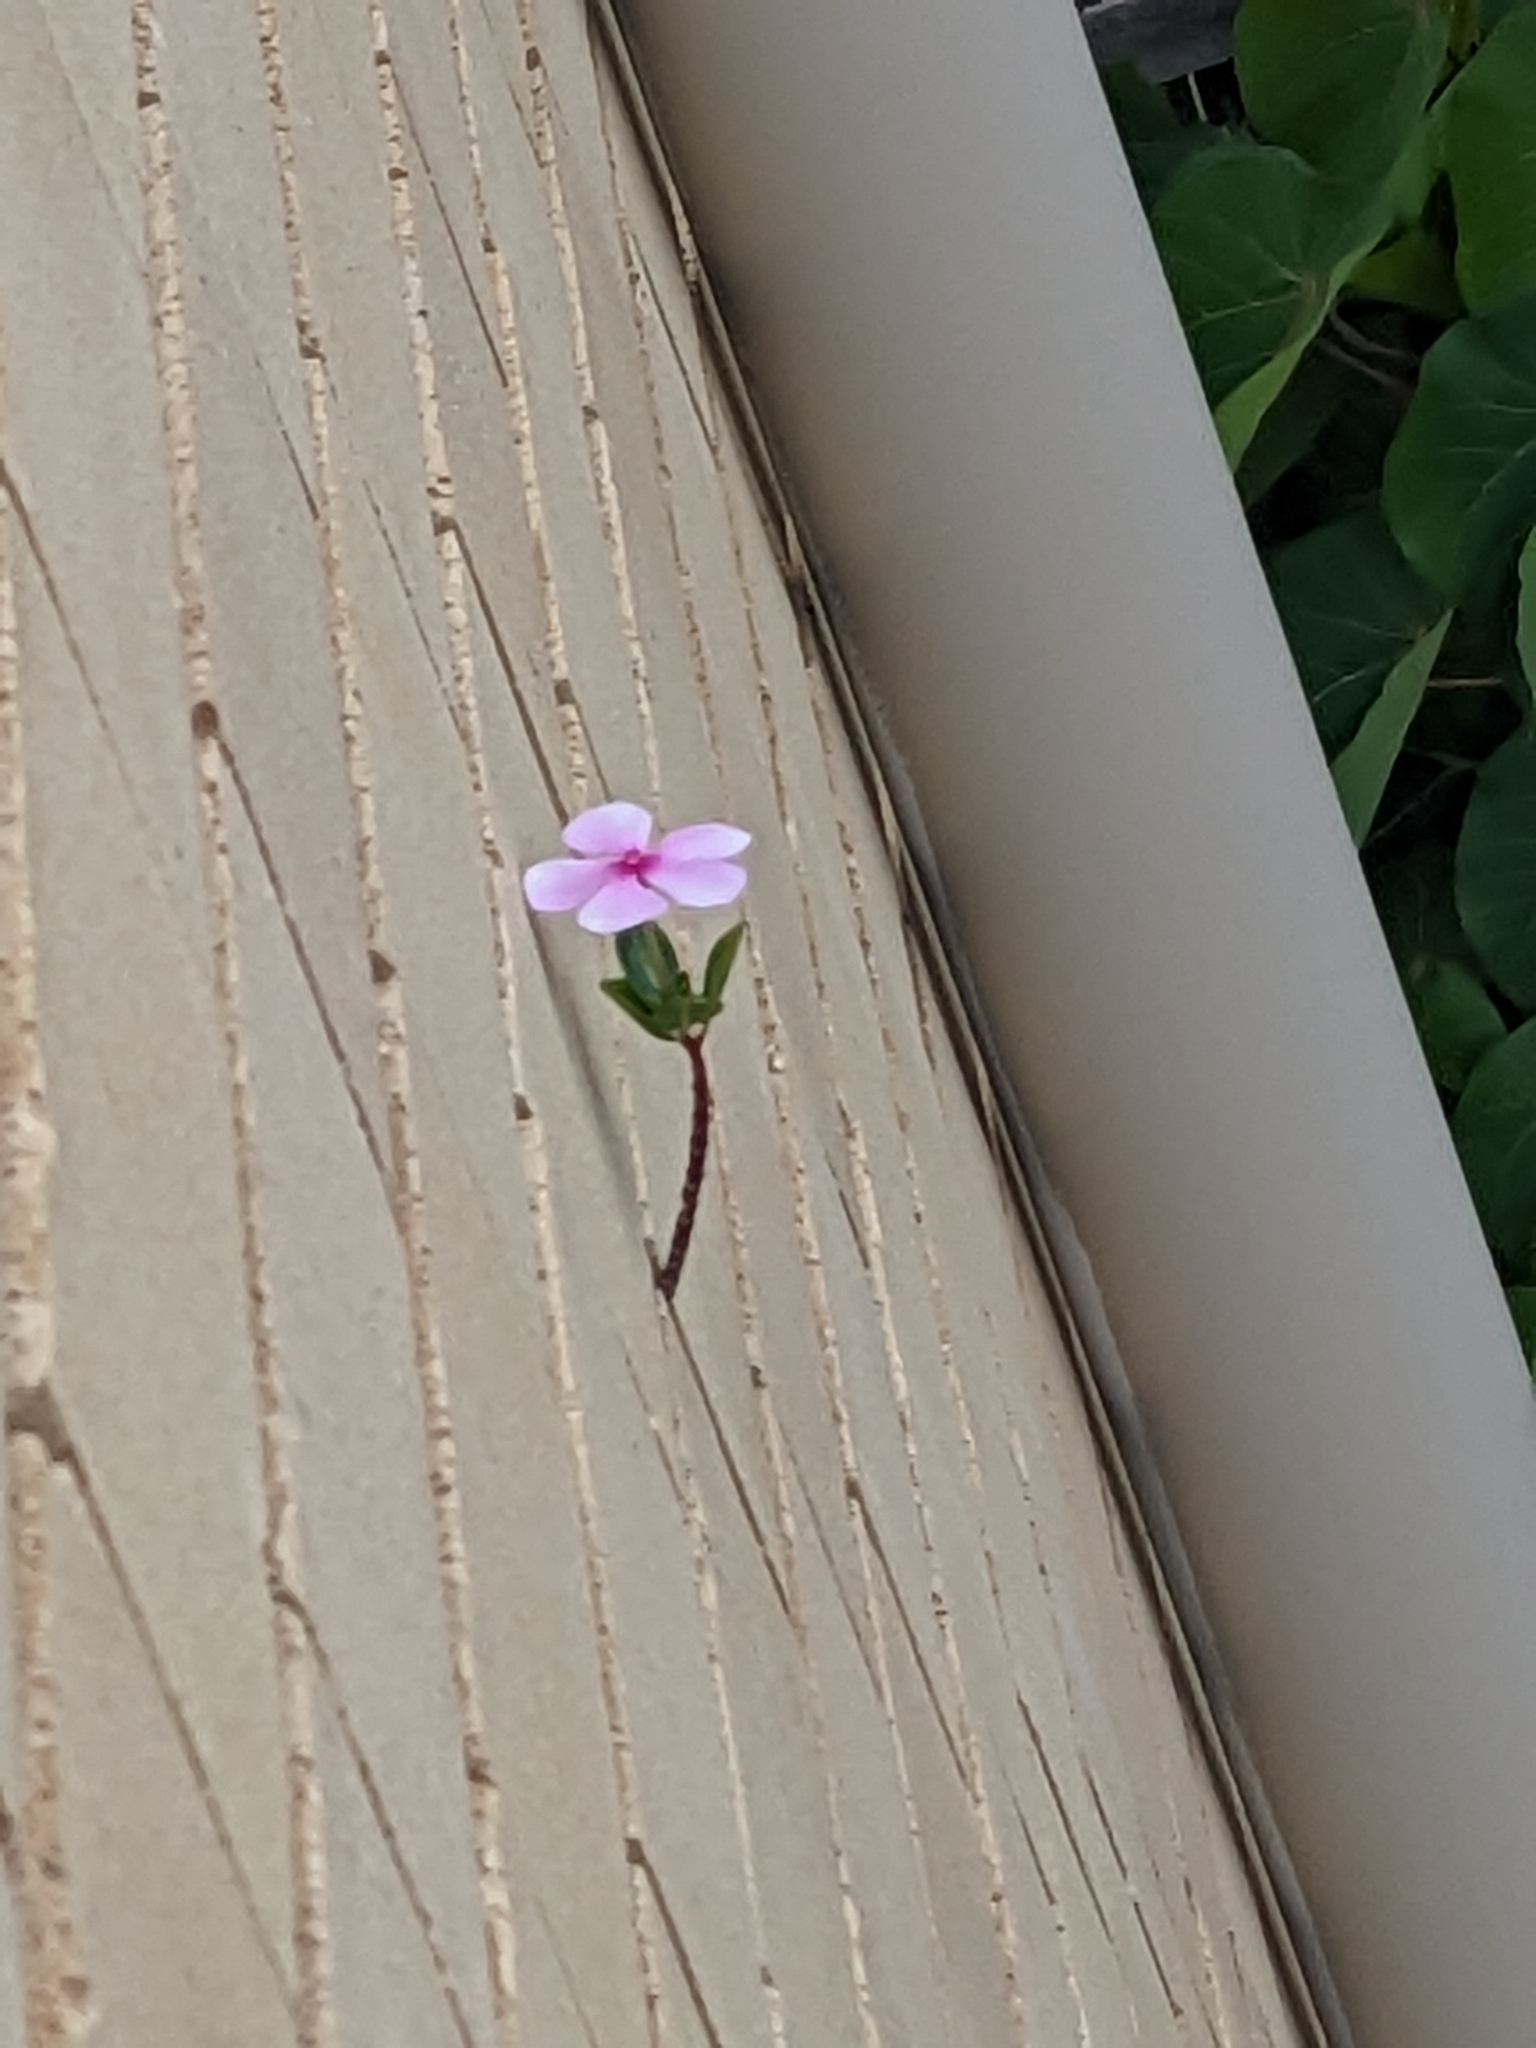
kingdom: Plantae
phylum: Tracheophyta
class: Magnoliopsida
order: Gentianales
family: Apocynaceae
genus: Catharanthus
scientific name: Catharanthus roseus
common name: Madagascar periwinkle
